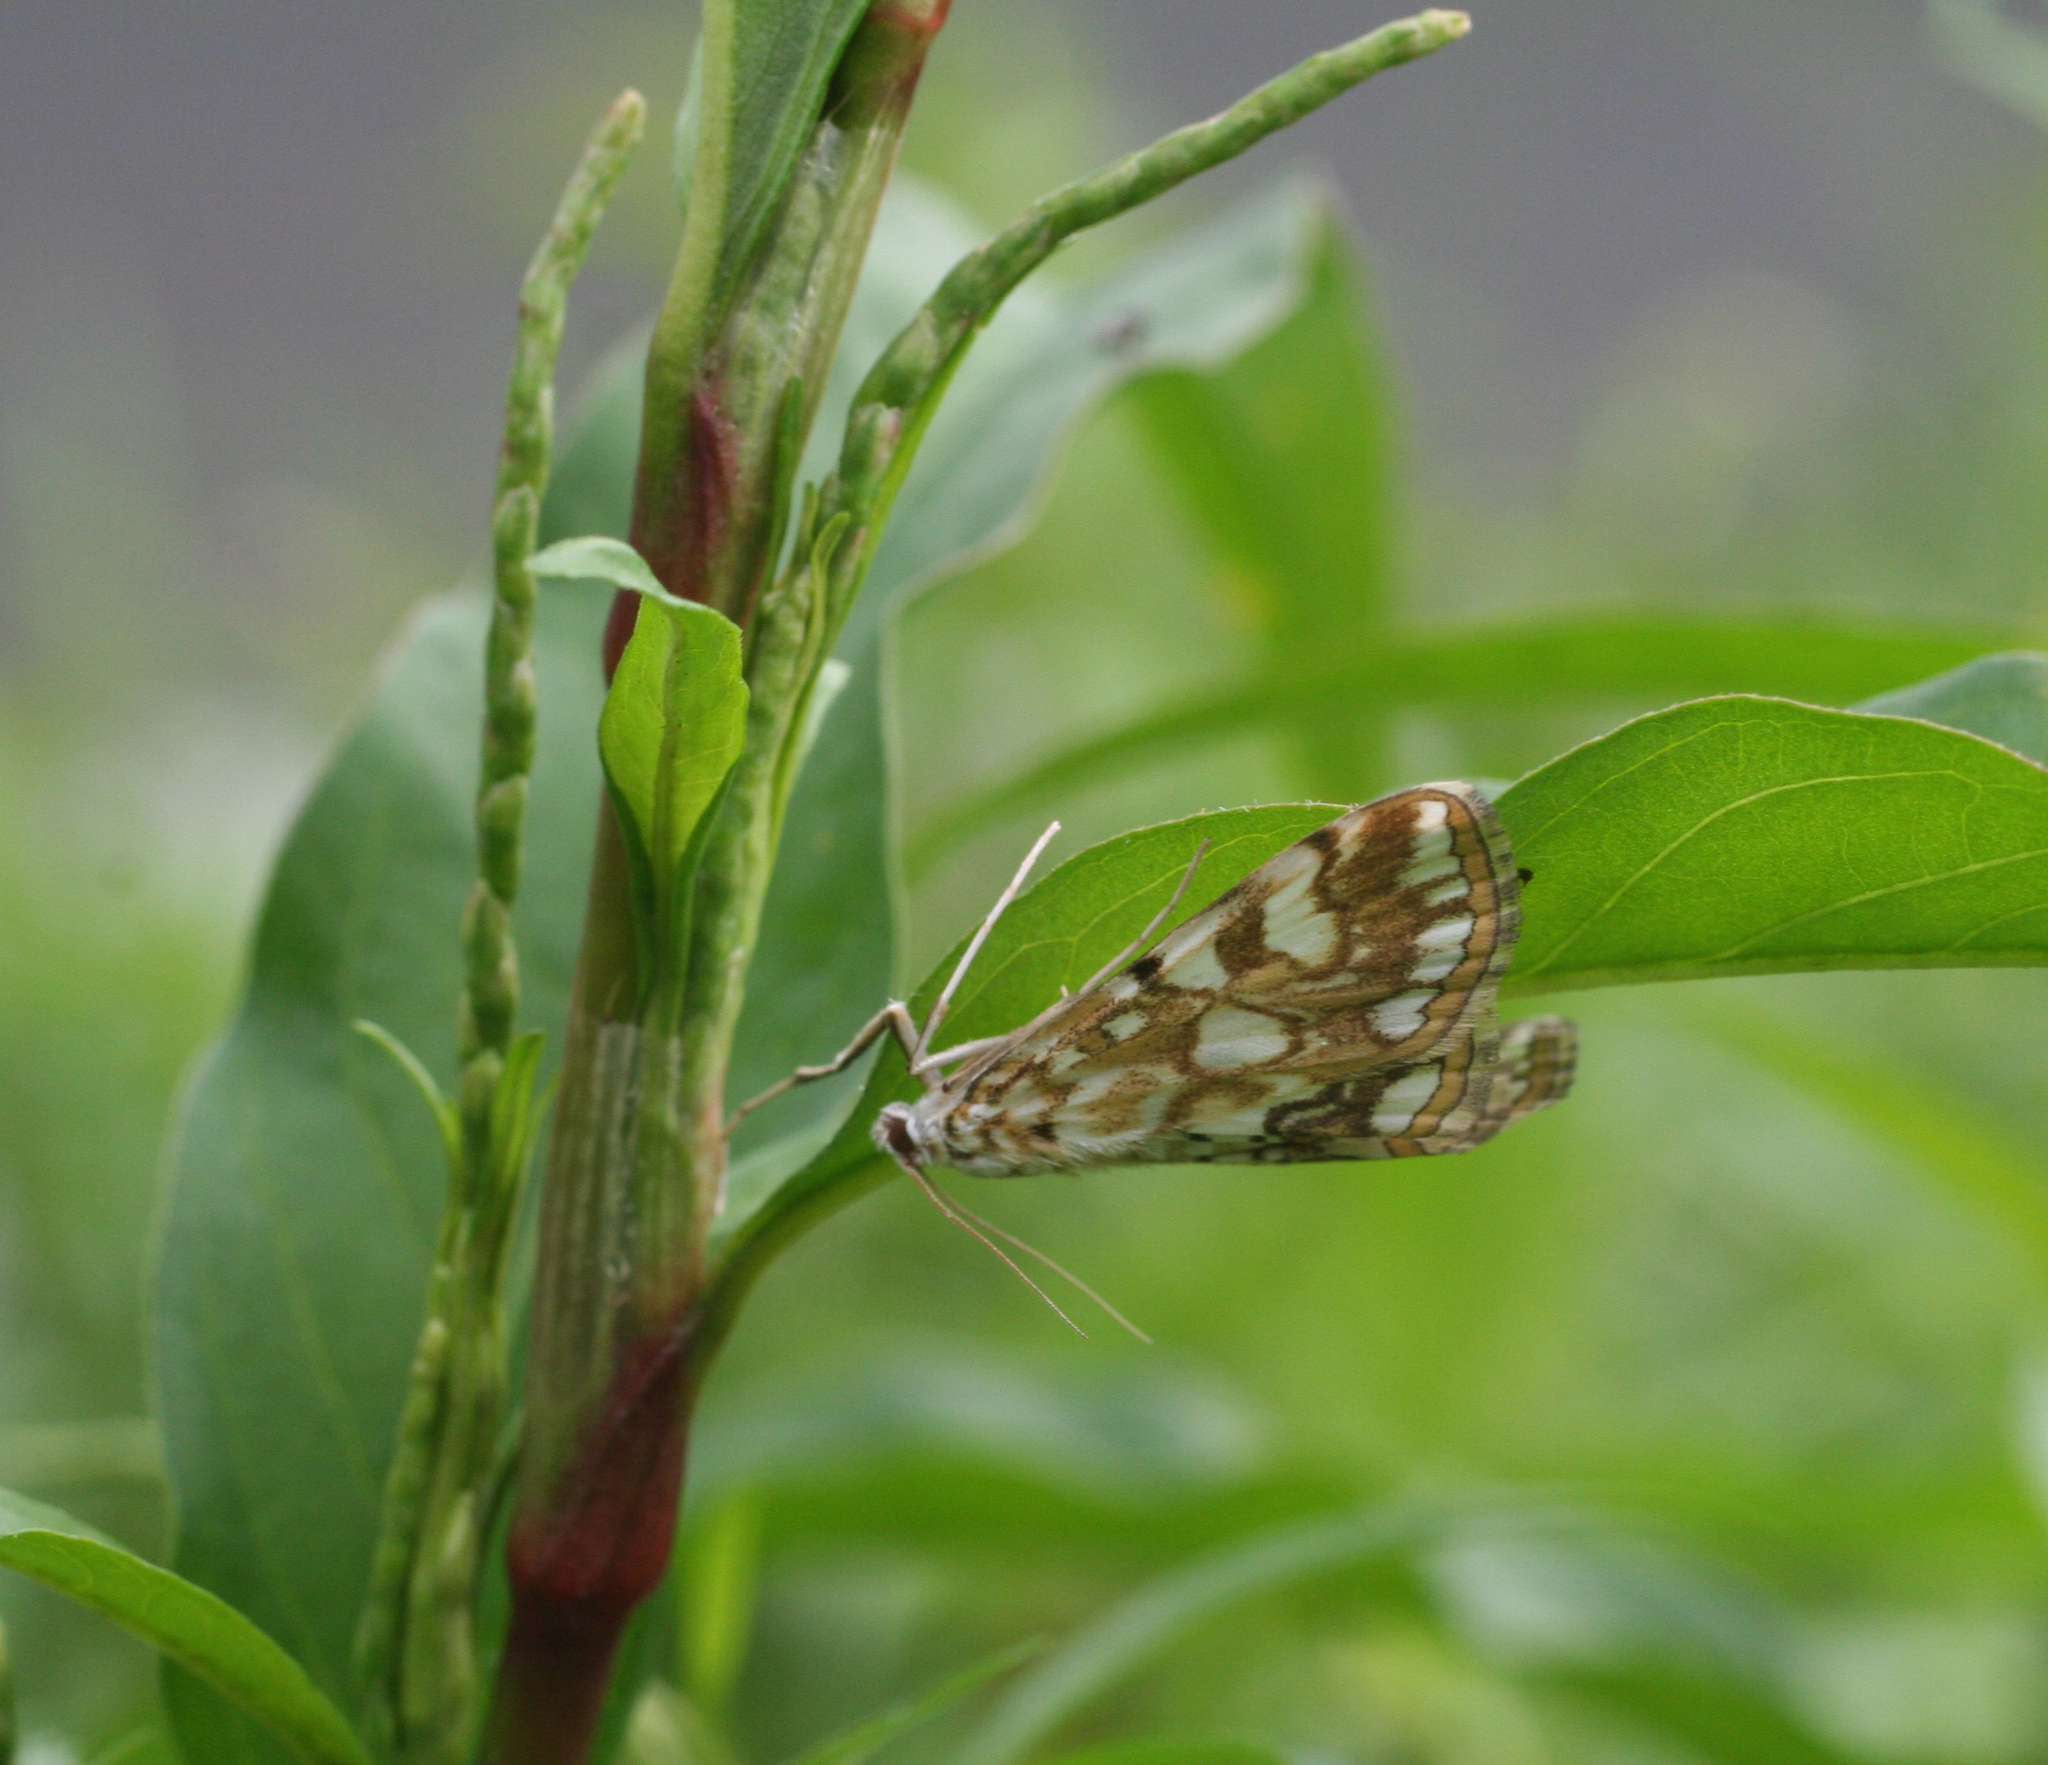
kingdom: Animalia
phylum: Arthropoda
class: Insecta
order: Lepidoptera
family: Crambidae
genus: Elophila
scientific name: Elophila nymphaeata
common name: Brown china-mark
